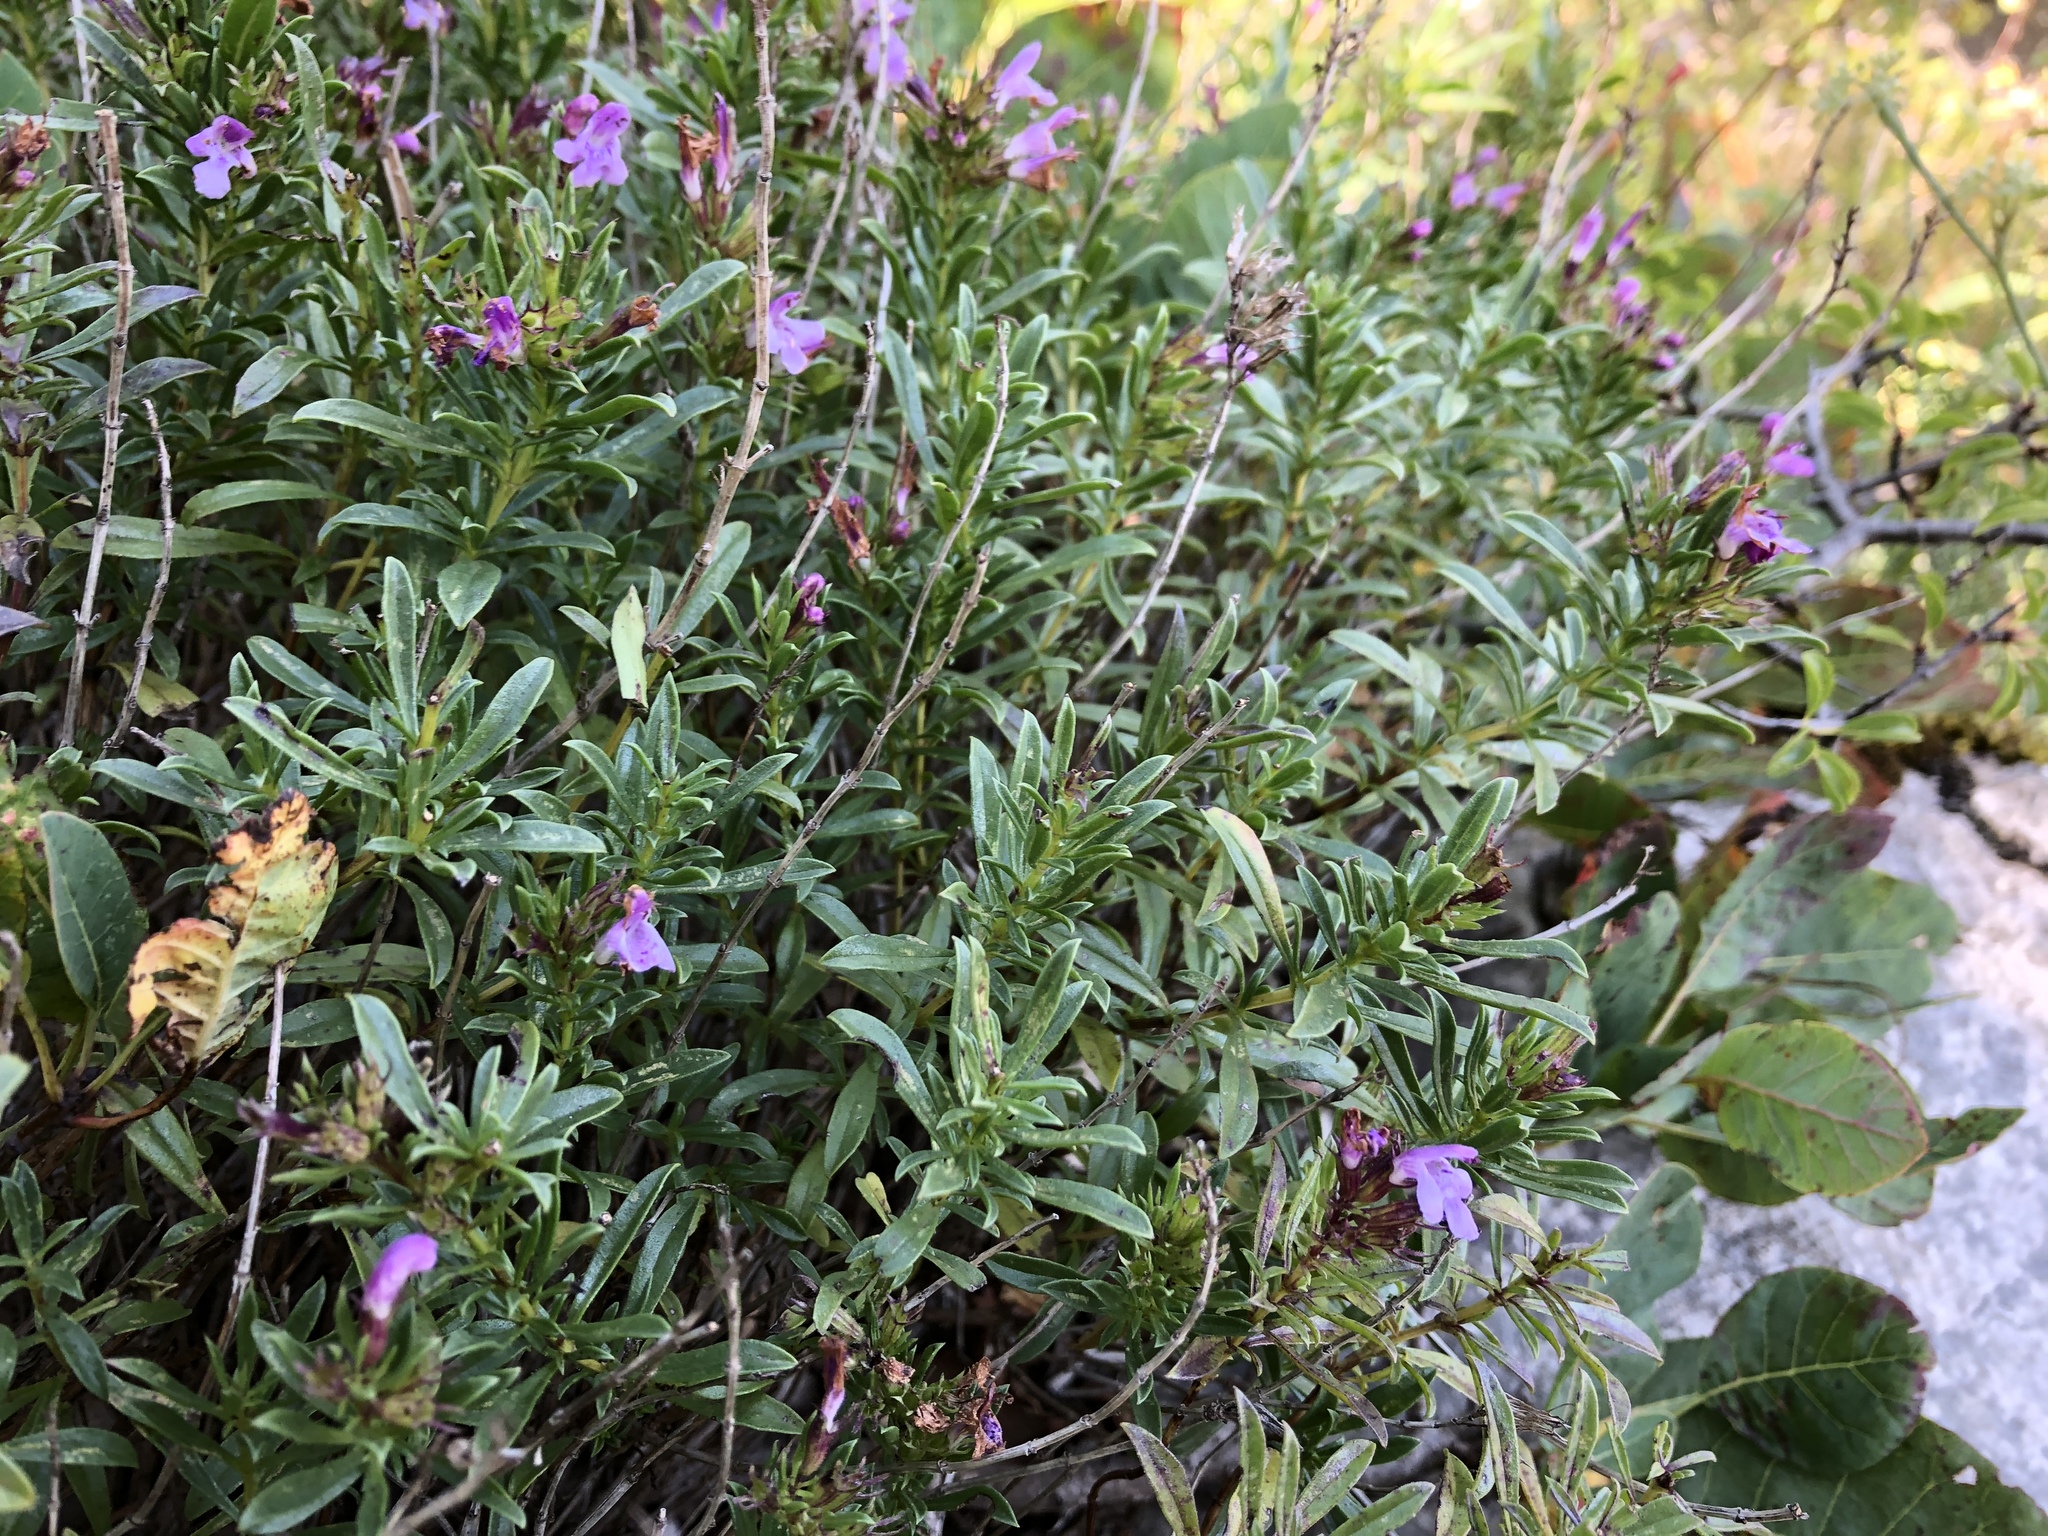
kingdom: Plantae
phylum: Tracheophyta
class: Magnoliopsida
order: Lamiales
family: Lamiaceae
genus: Satureja
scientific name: Satureja subspicata
